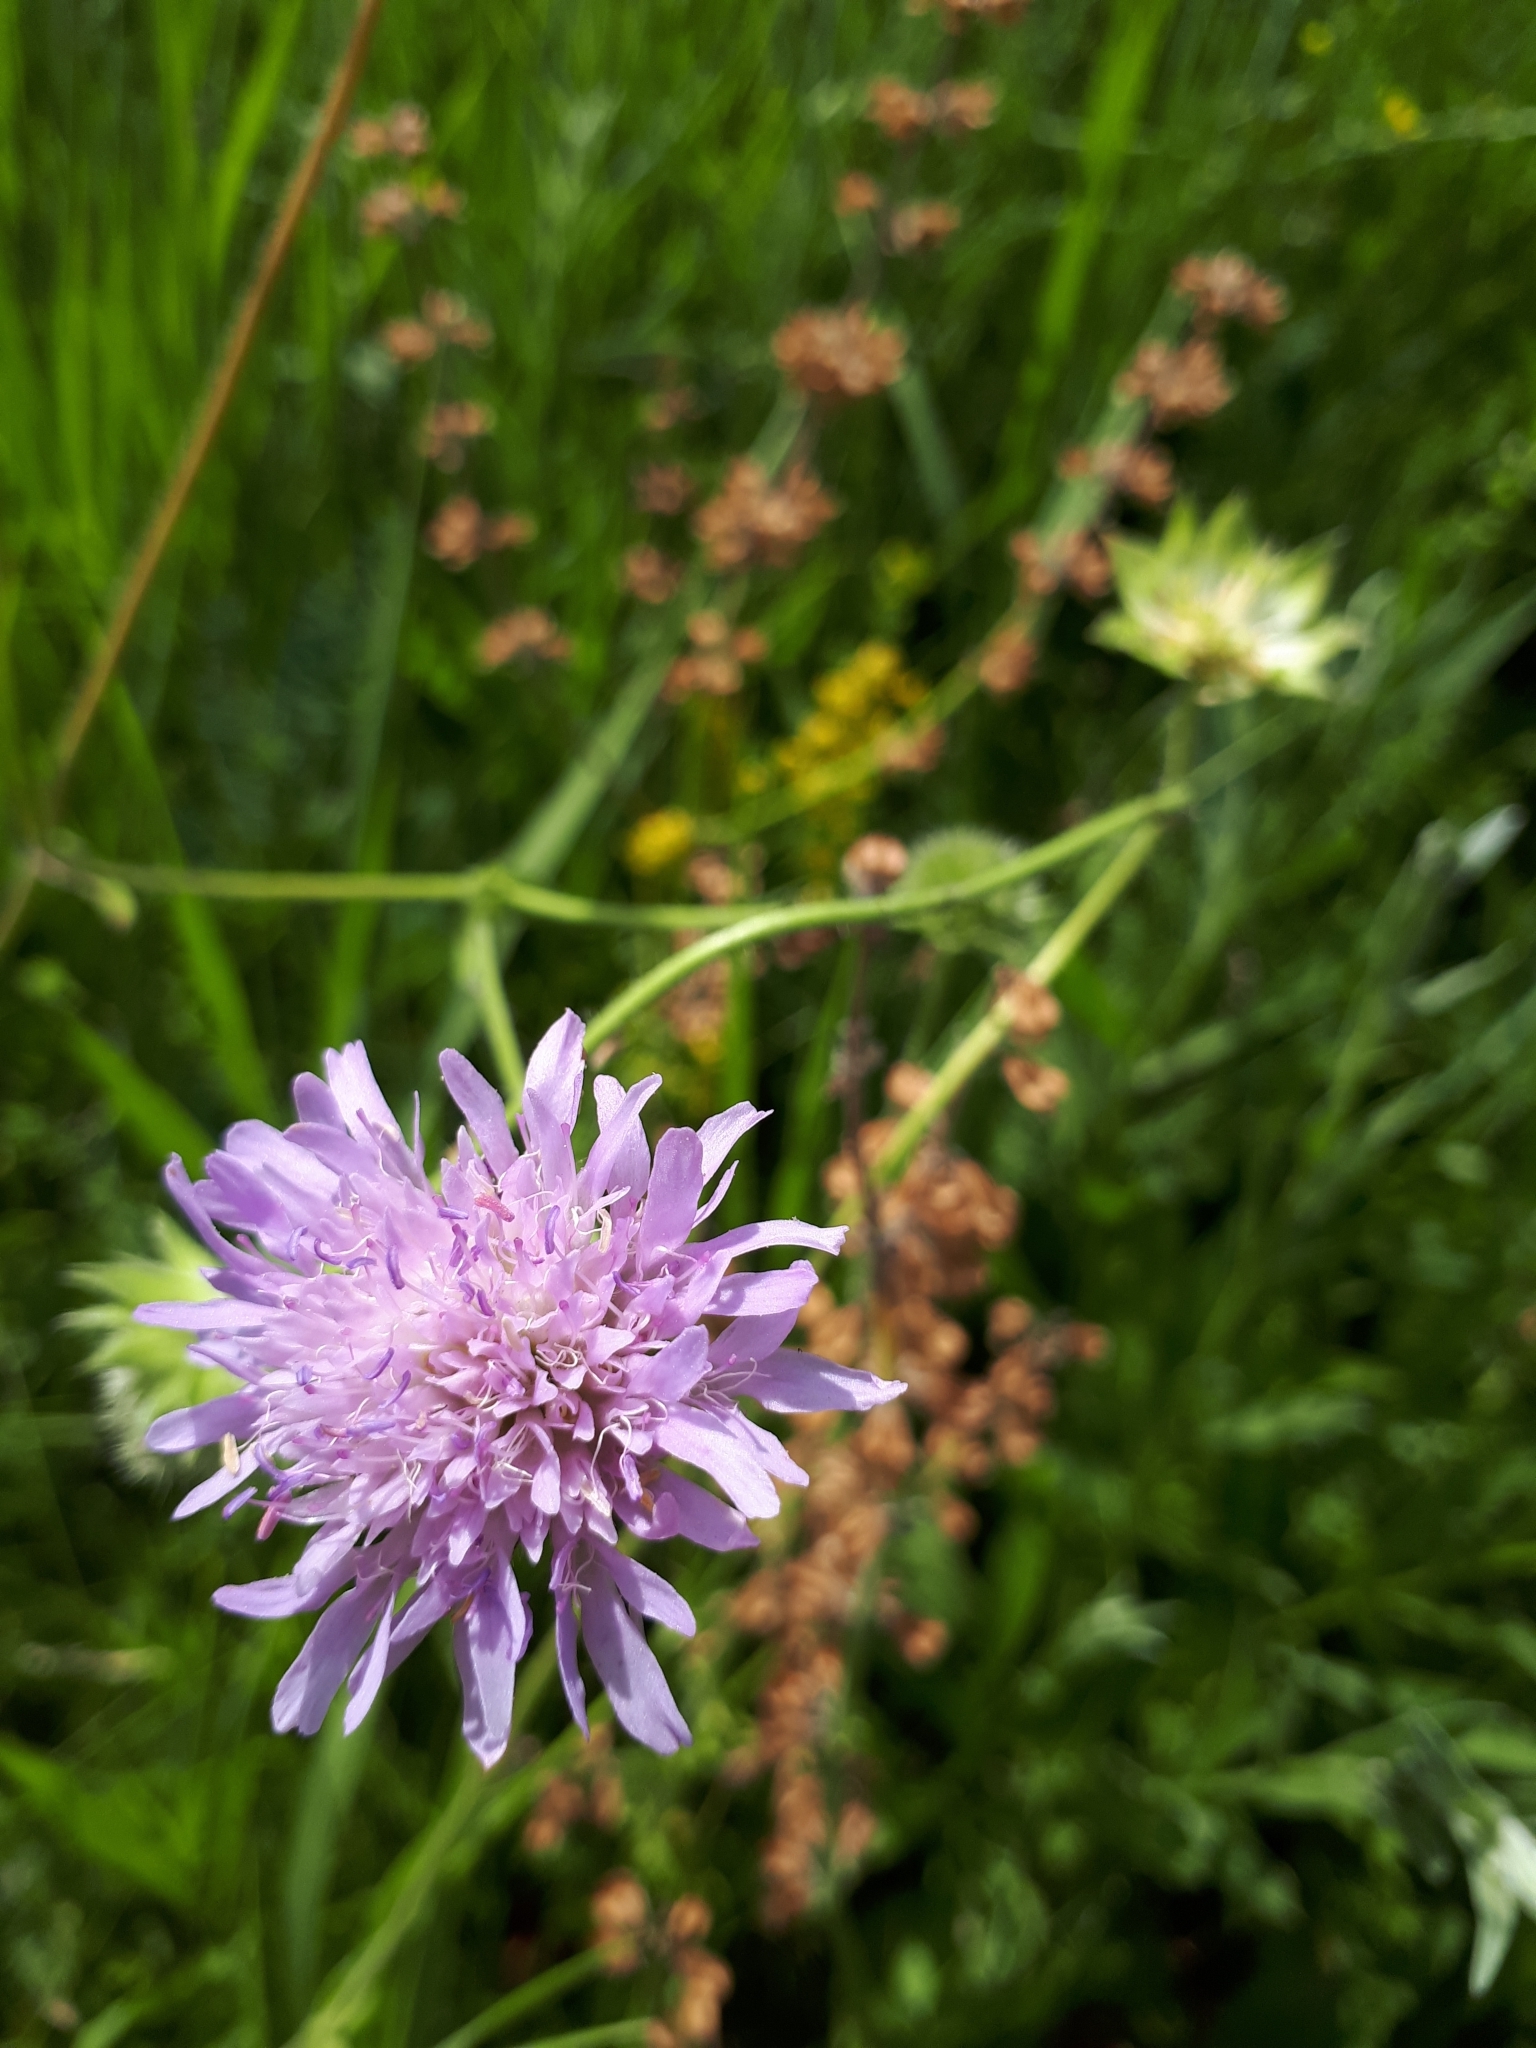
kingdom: Plantae
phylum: Tracheophyta
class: Magnoliopsida
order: Dipsacales
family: Caprifoliaceae
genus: Knautia
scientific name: Knautia arvensis
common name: Field scabiosa
